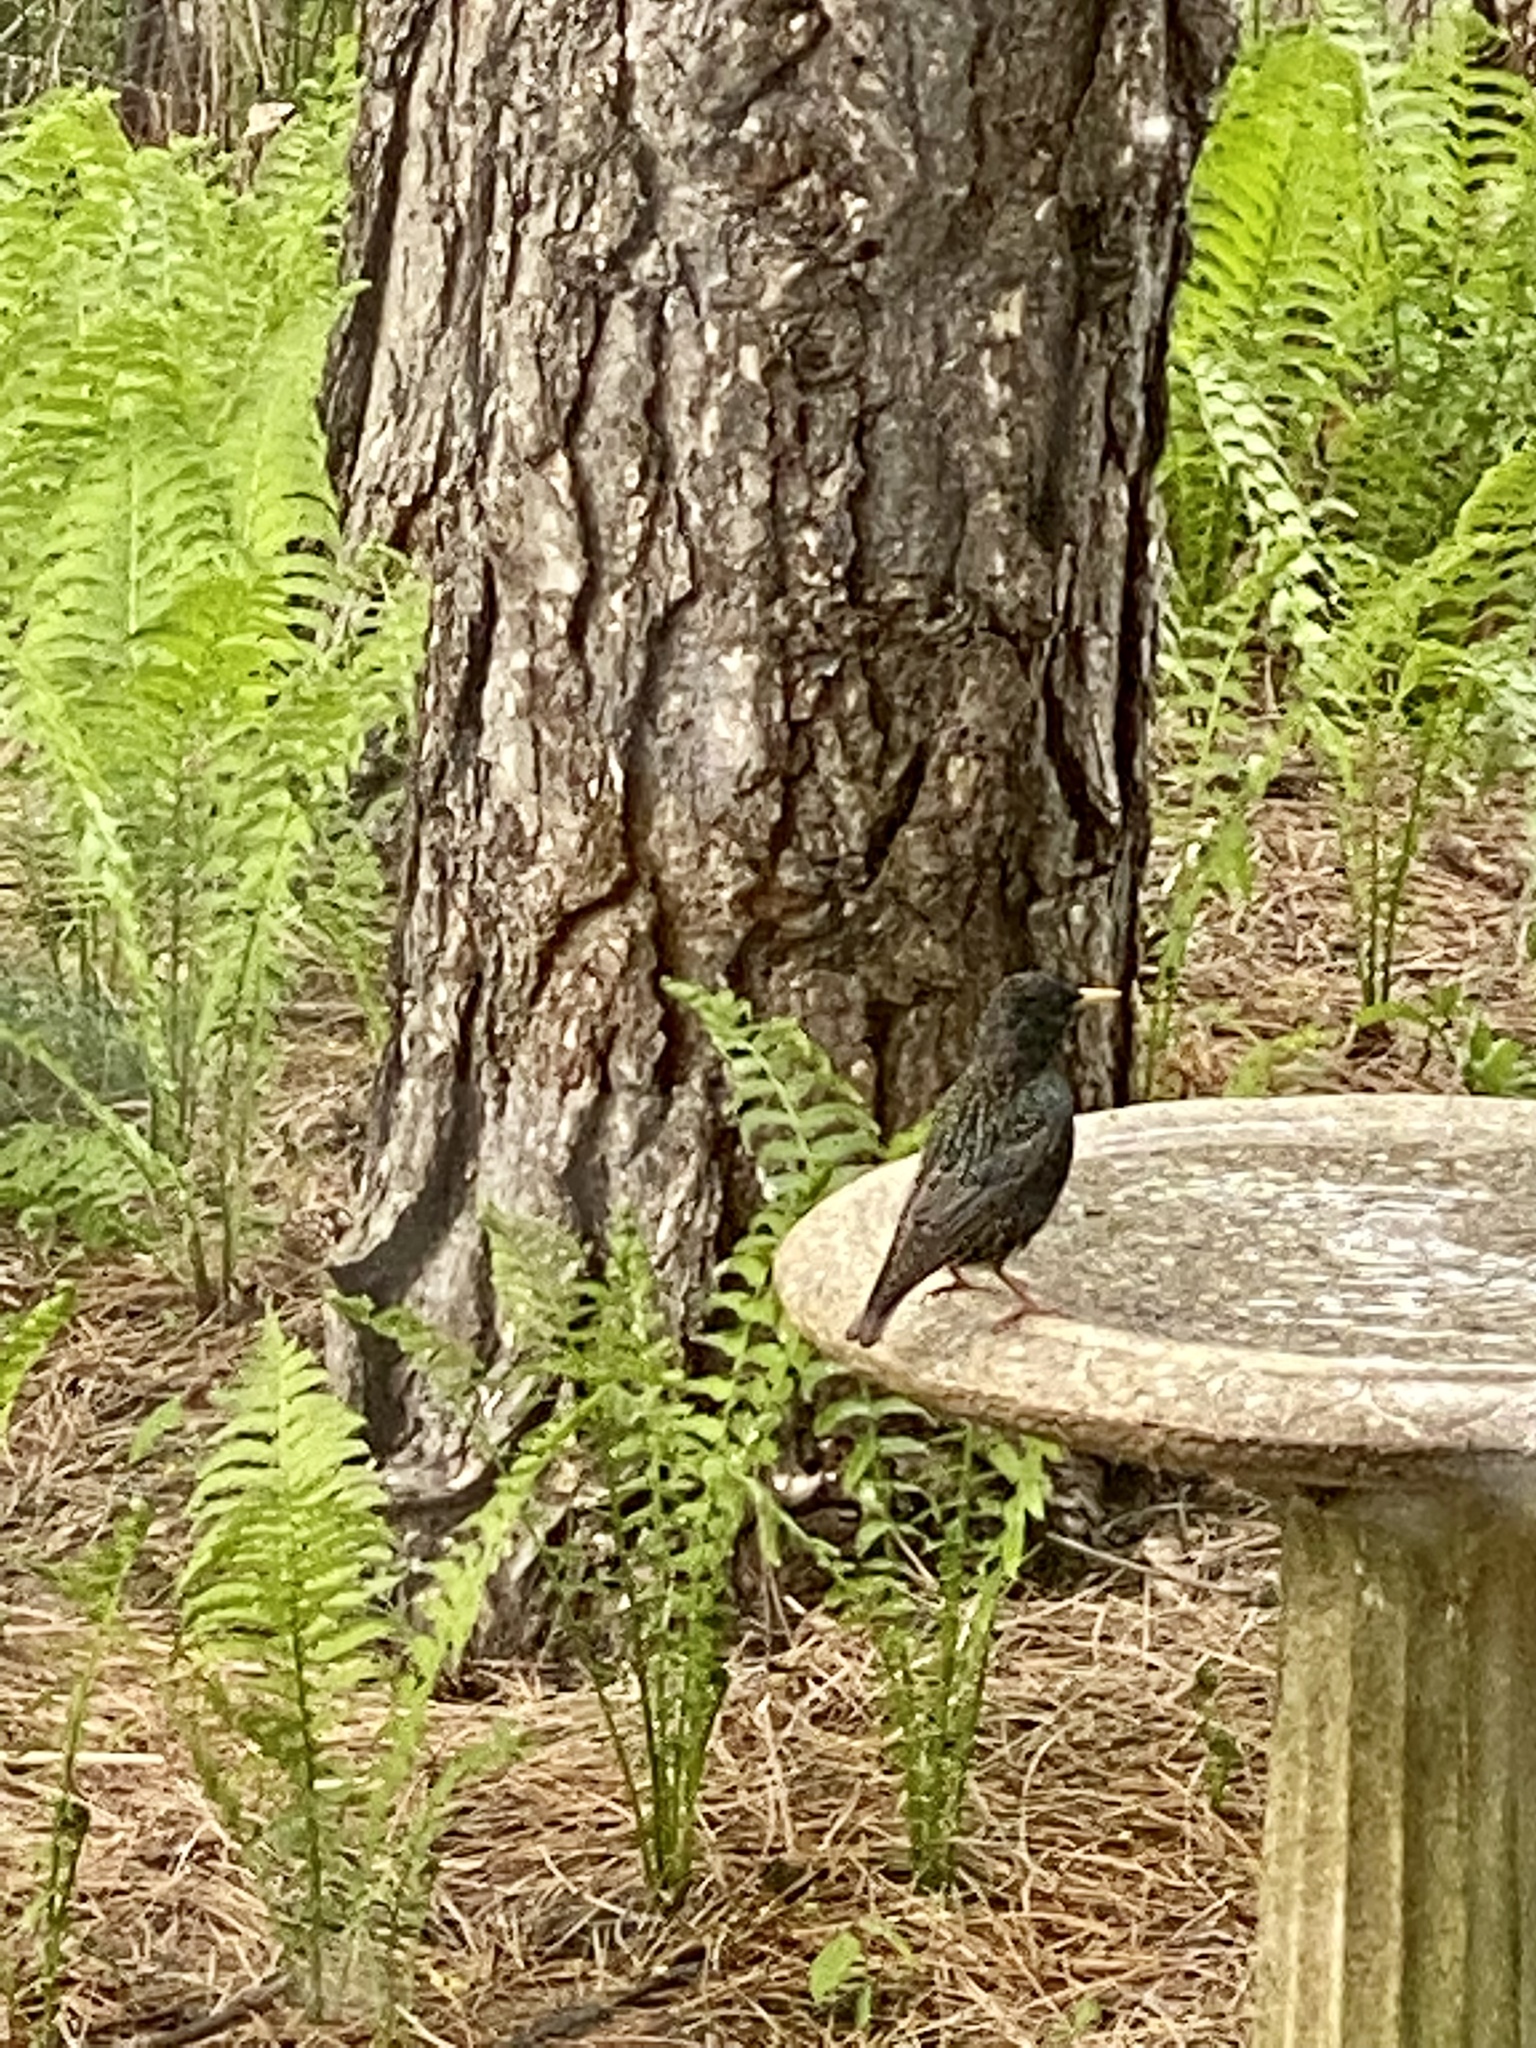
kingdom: Animalia
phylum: Chordata
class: Aves
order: Passeriformes
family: Sturnidae
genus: Sturnus
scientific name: Sturnus vulgaris
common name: Common starling
